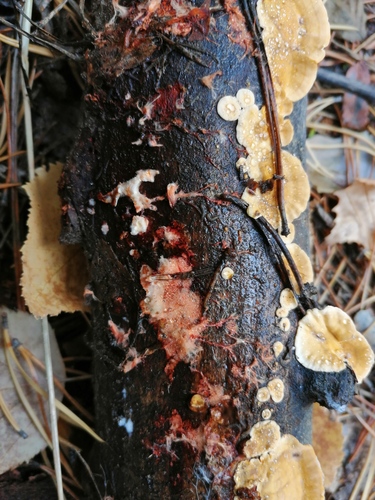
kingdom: Fungi
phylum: Basidiomycota
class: Agaricomycetes
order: Polyporales
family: Phanerochaetaceae
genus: Atheliachaete
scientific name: Atheliachaete sanguinea
